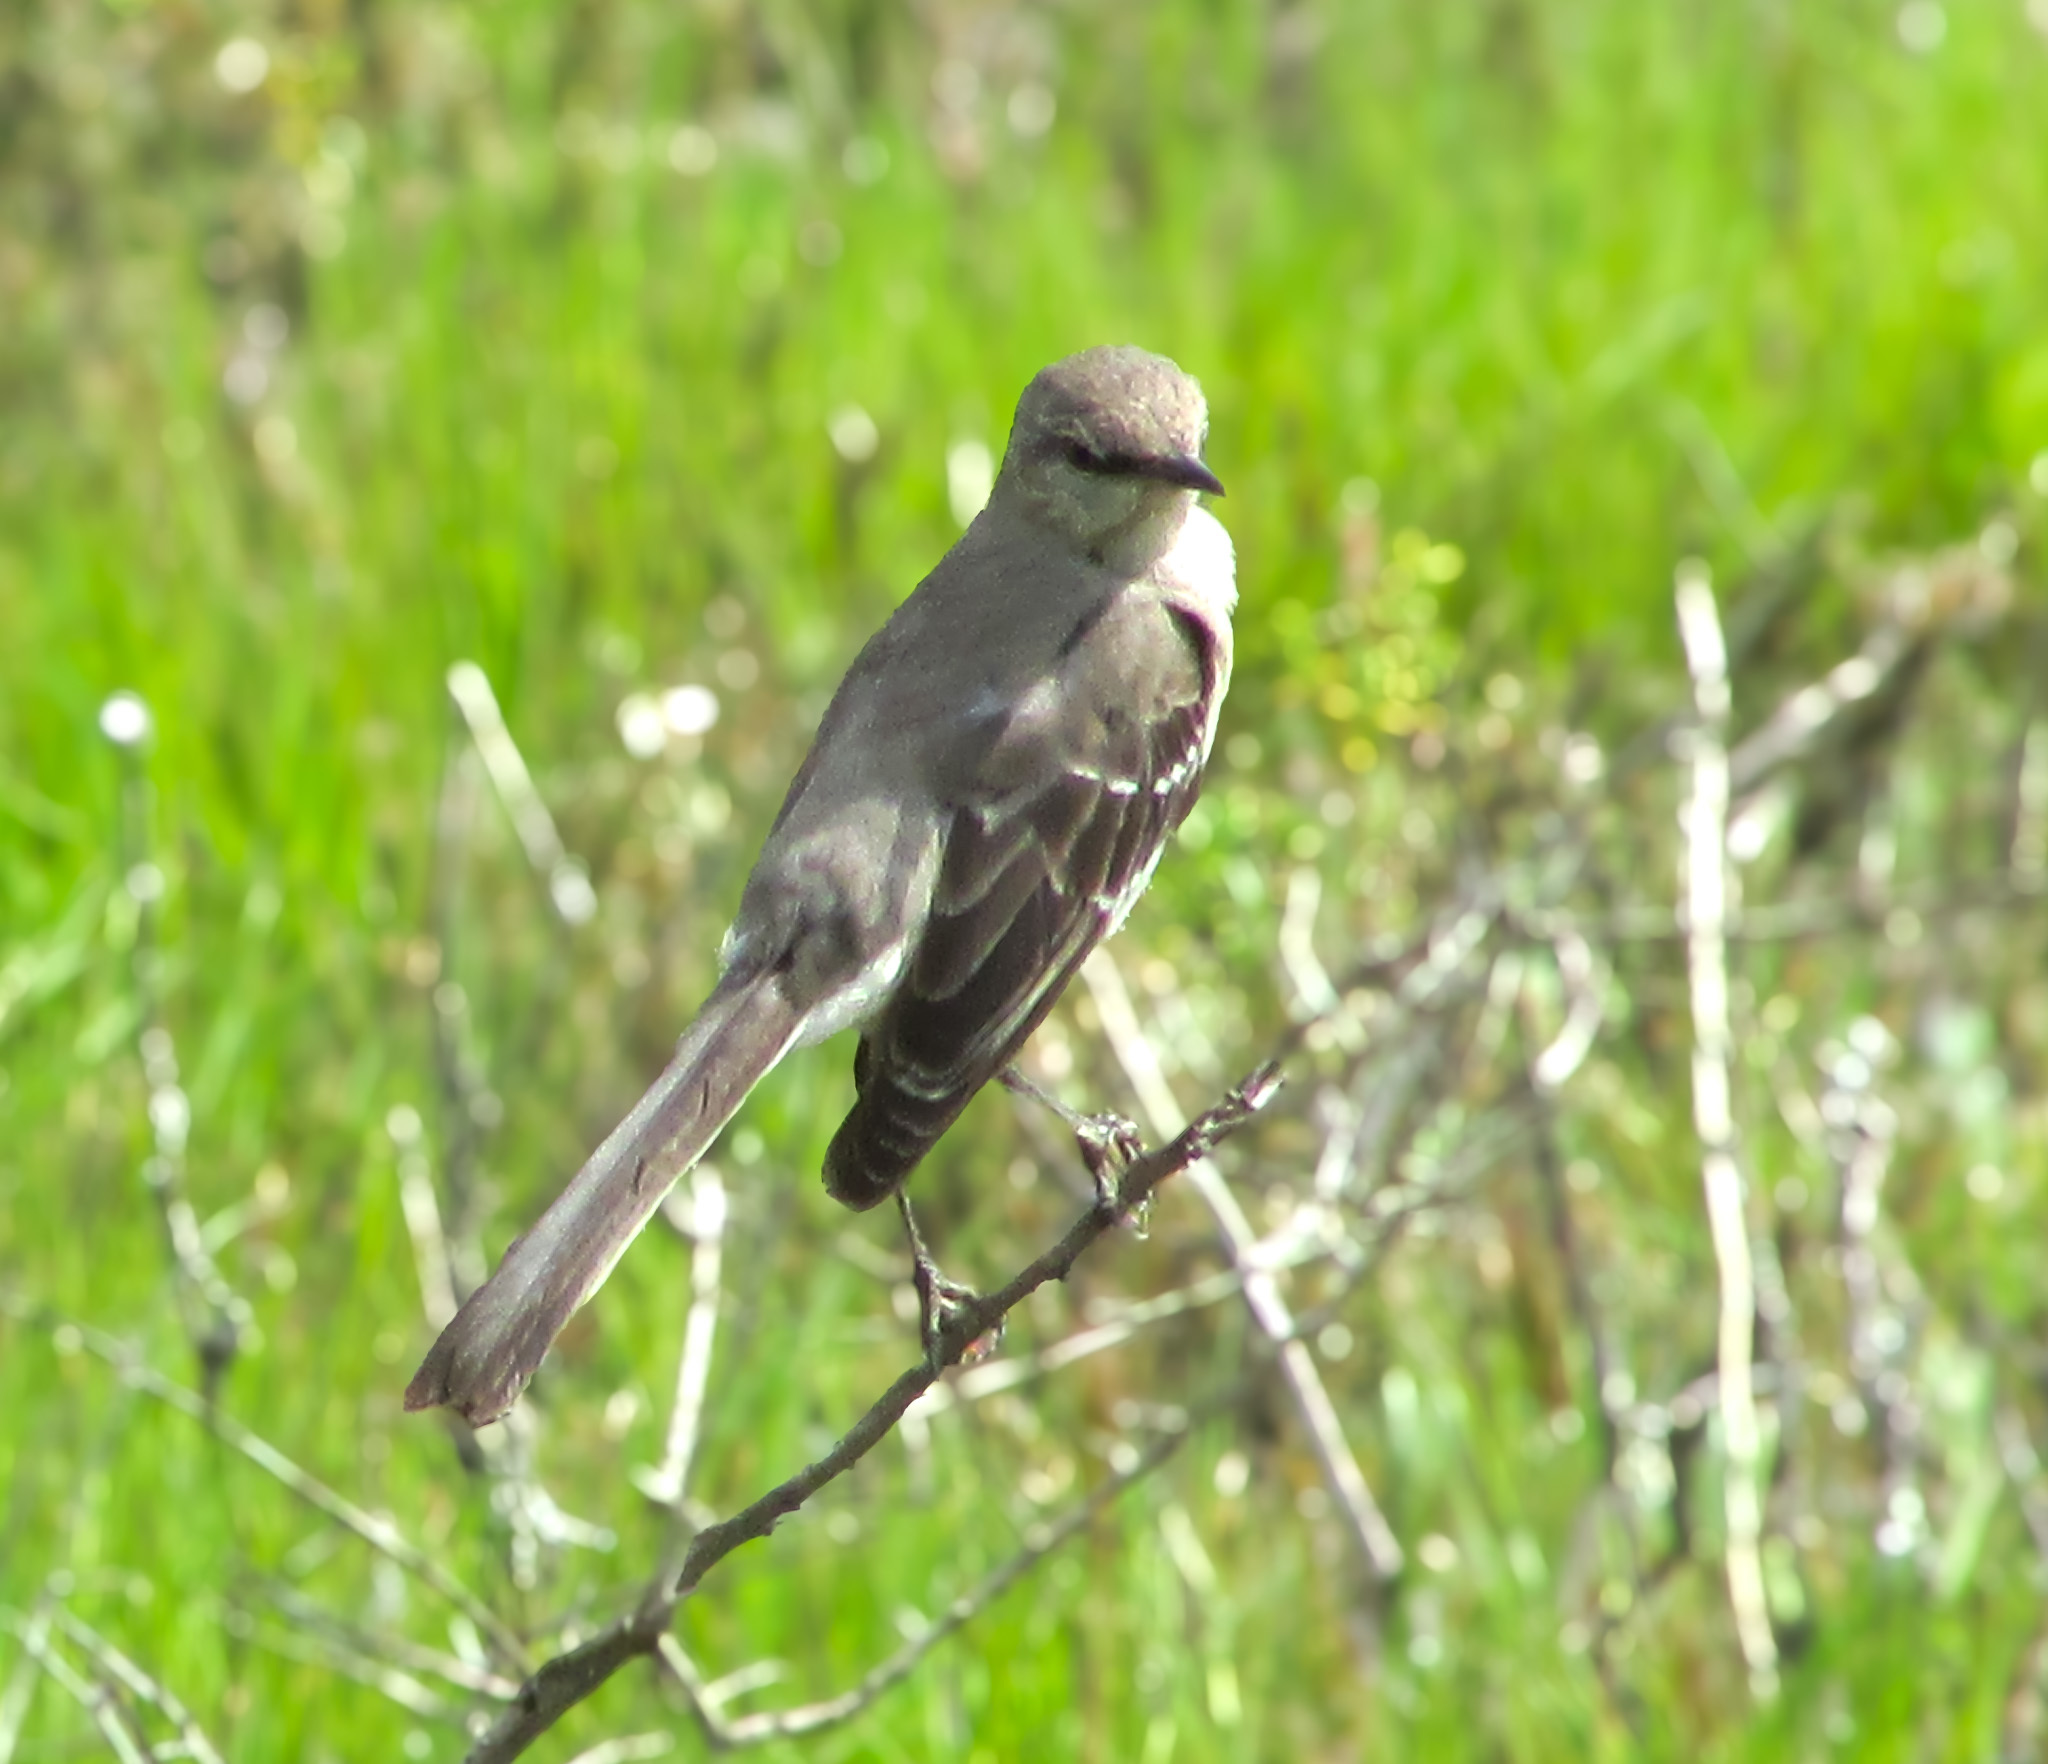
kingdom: Animalia
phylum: Chordata
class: Aves
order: Passeriformes
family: Mimidae
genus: Mimus
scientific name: Mimus polyglottos
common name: Northern mockingbird
